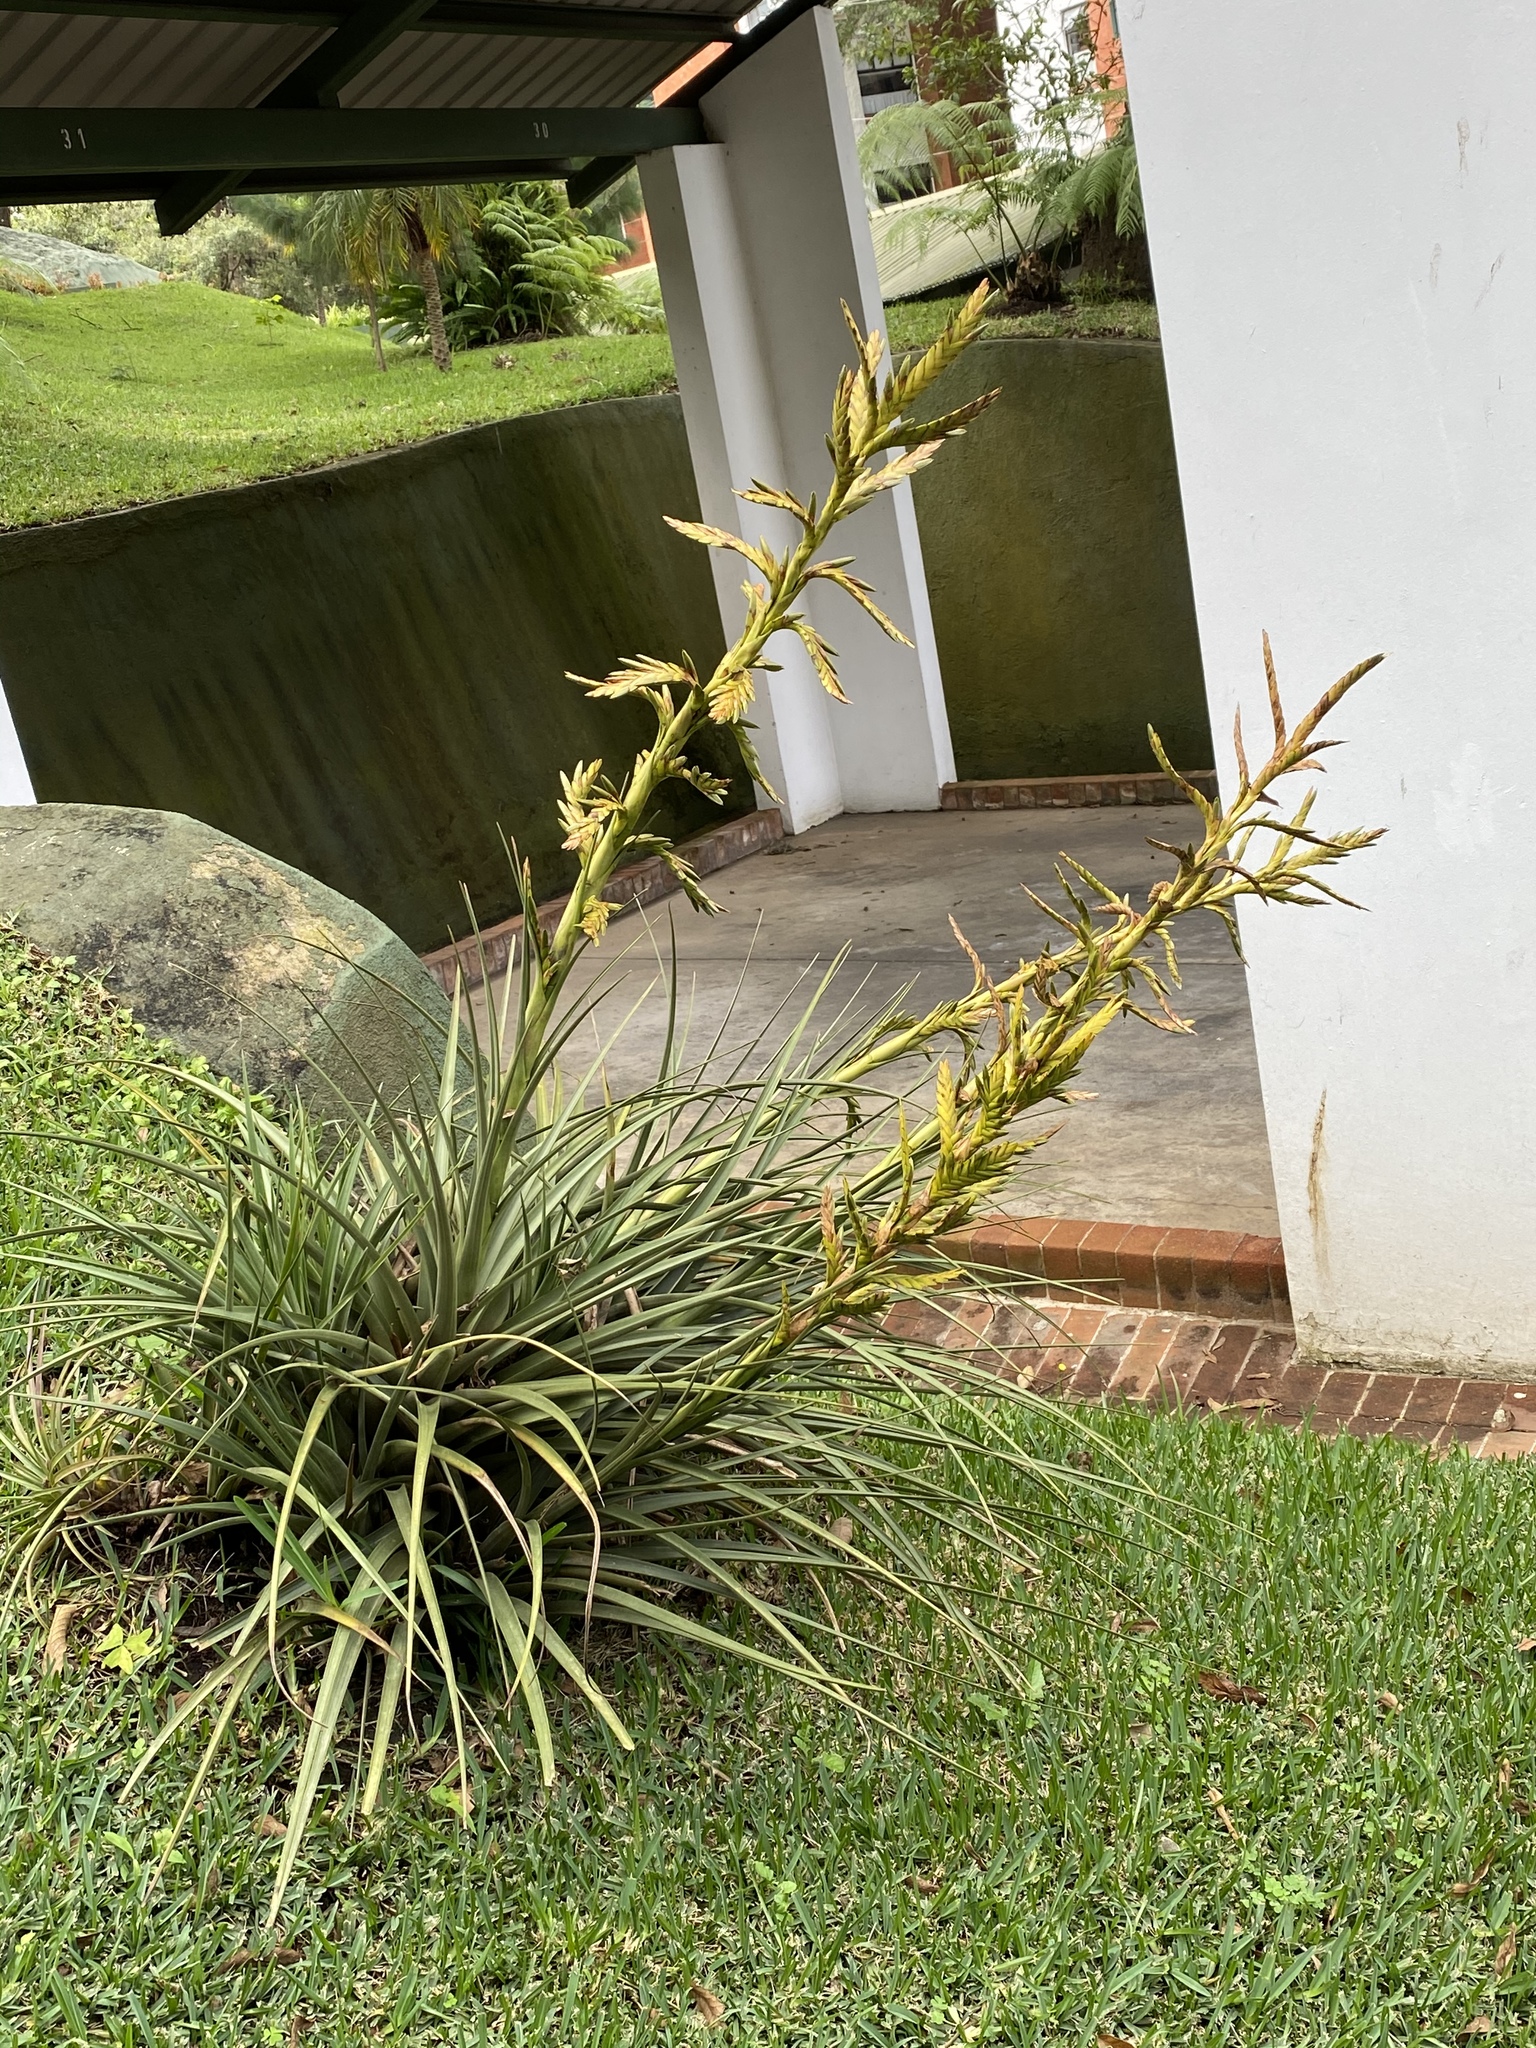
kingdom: Plantae
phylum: Tracheophyta
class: Liliopsida
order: Poales
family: Bromeliaceae
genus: Tillandsia
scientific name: Tillandsia rodrigueziana
